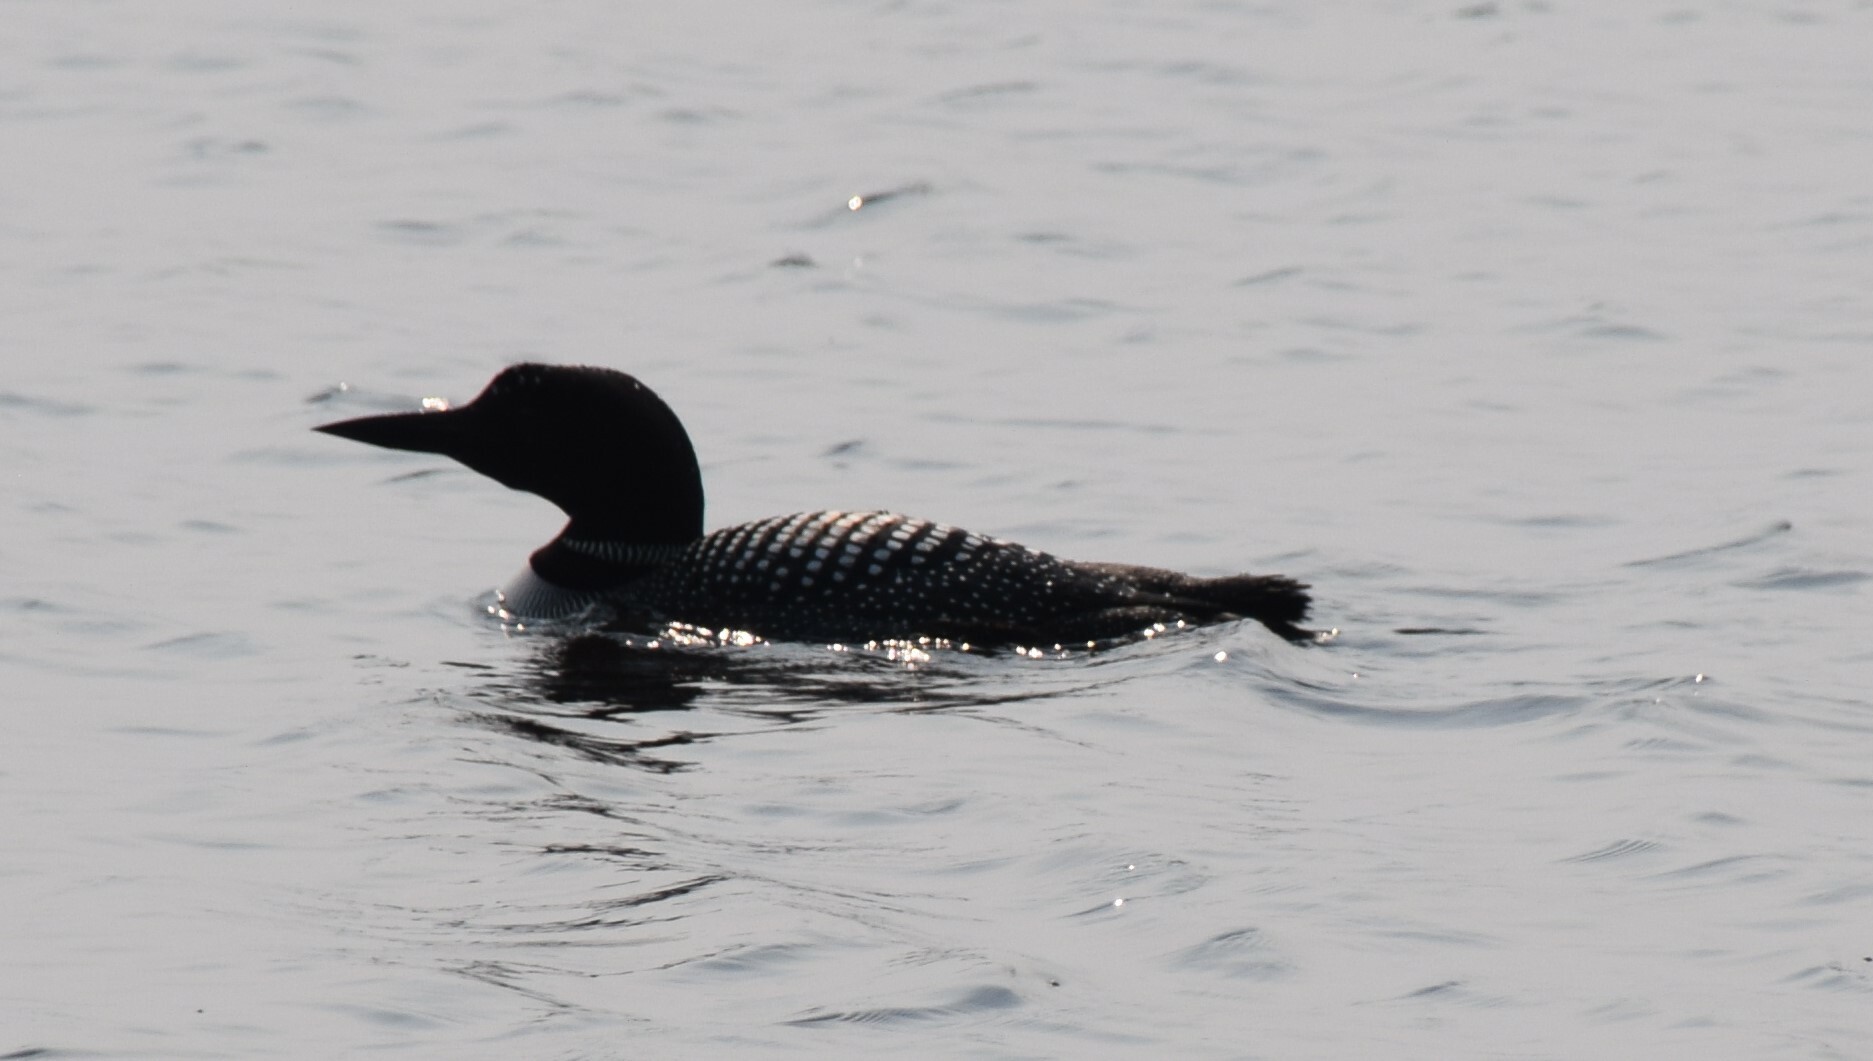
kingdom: Animalia
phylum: Chordata
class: Aves
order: Gaviiformes
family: Gaviidae
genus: Gavia
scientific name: Gavia immer
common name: Common loon
